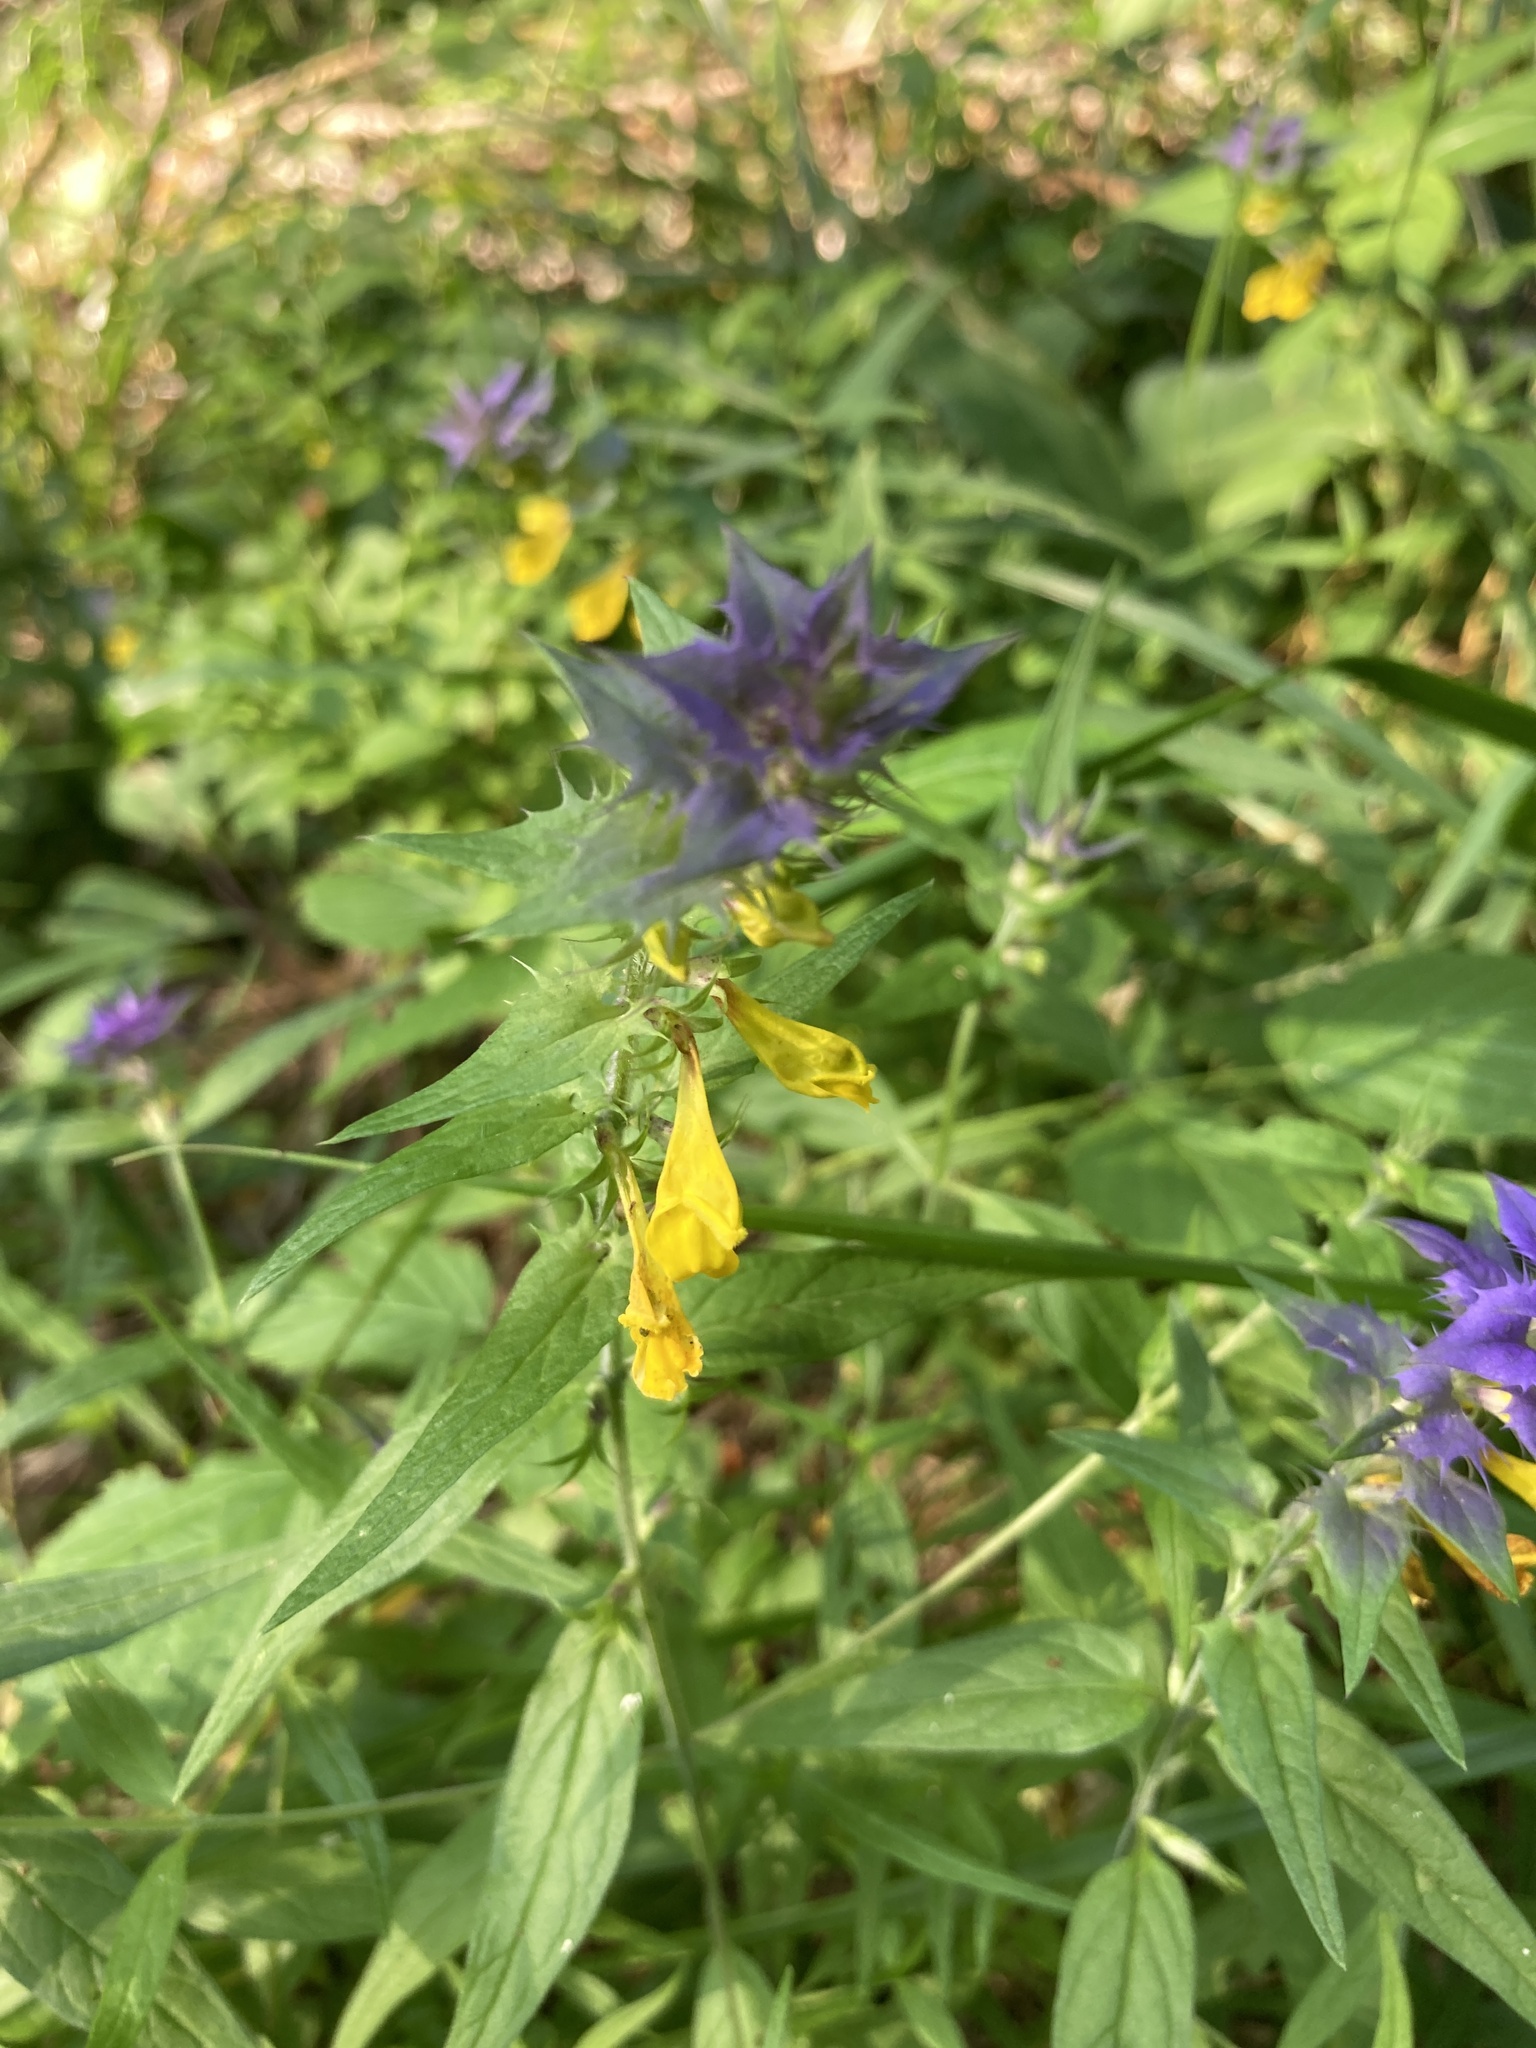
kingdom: Plantae
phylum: Tracheophyta
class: Magnoliopsida
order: Lamiales
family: Orobanchaceae
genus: Melampyrum
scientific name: Melampyrum nemorosum
